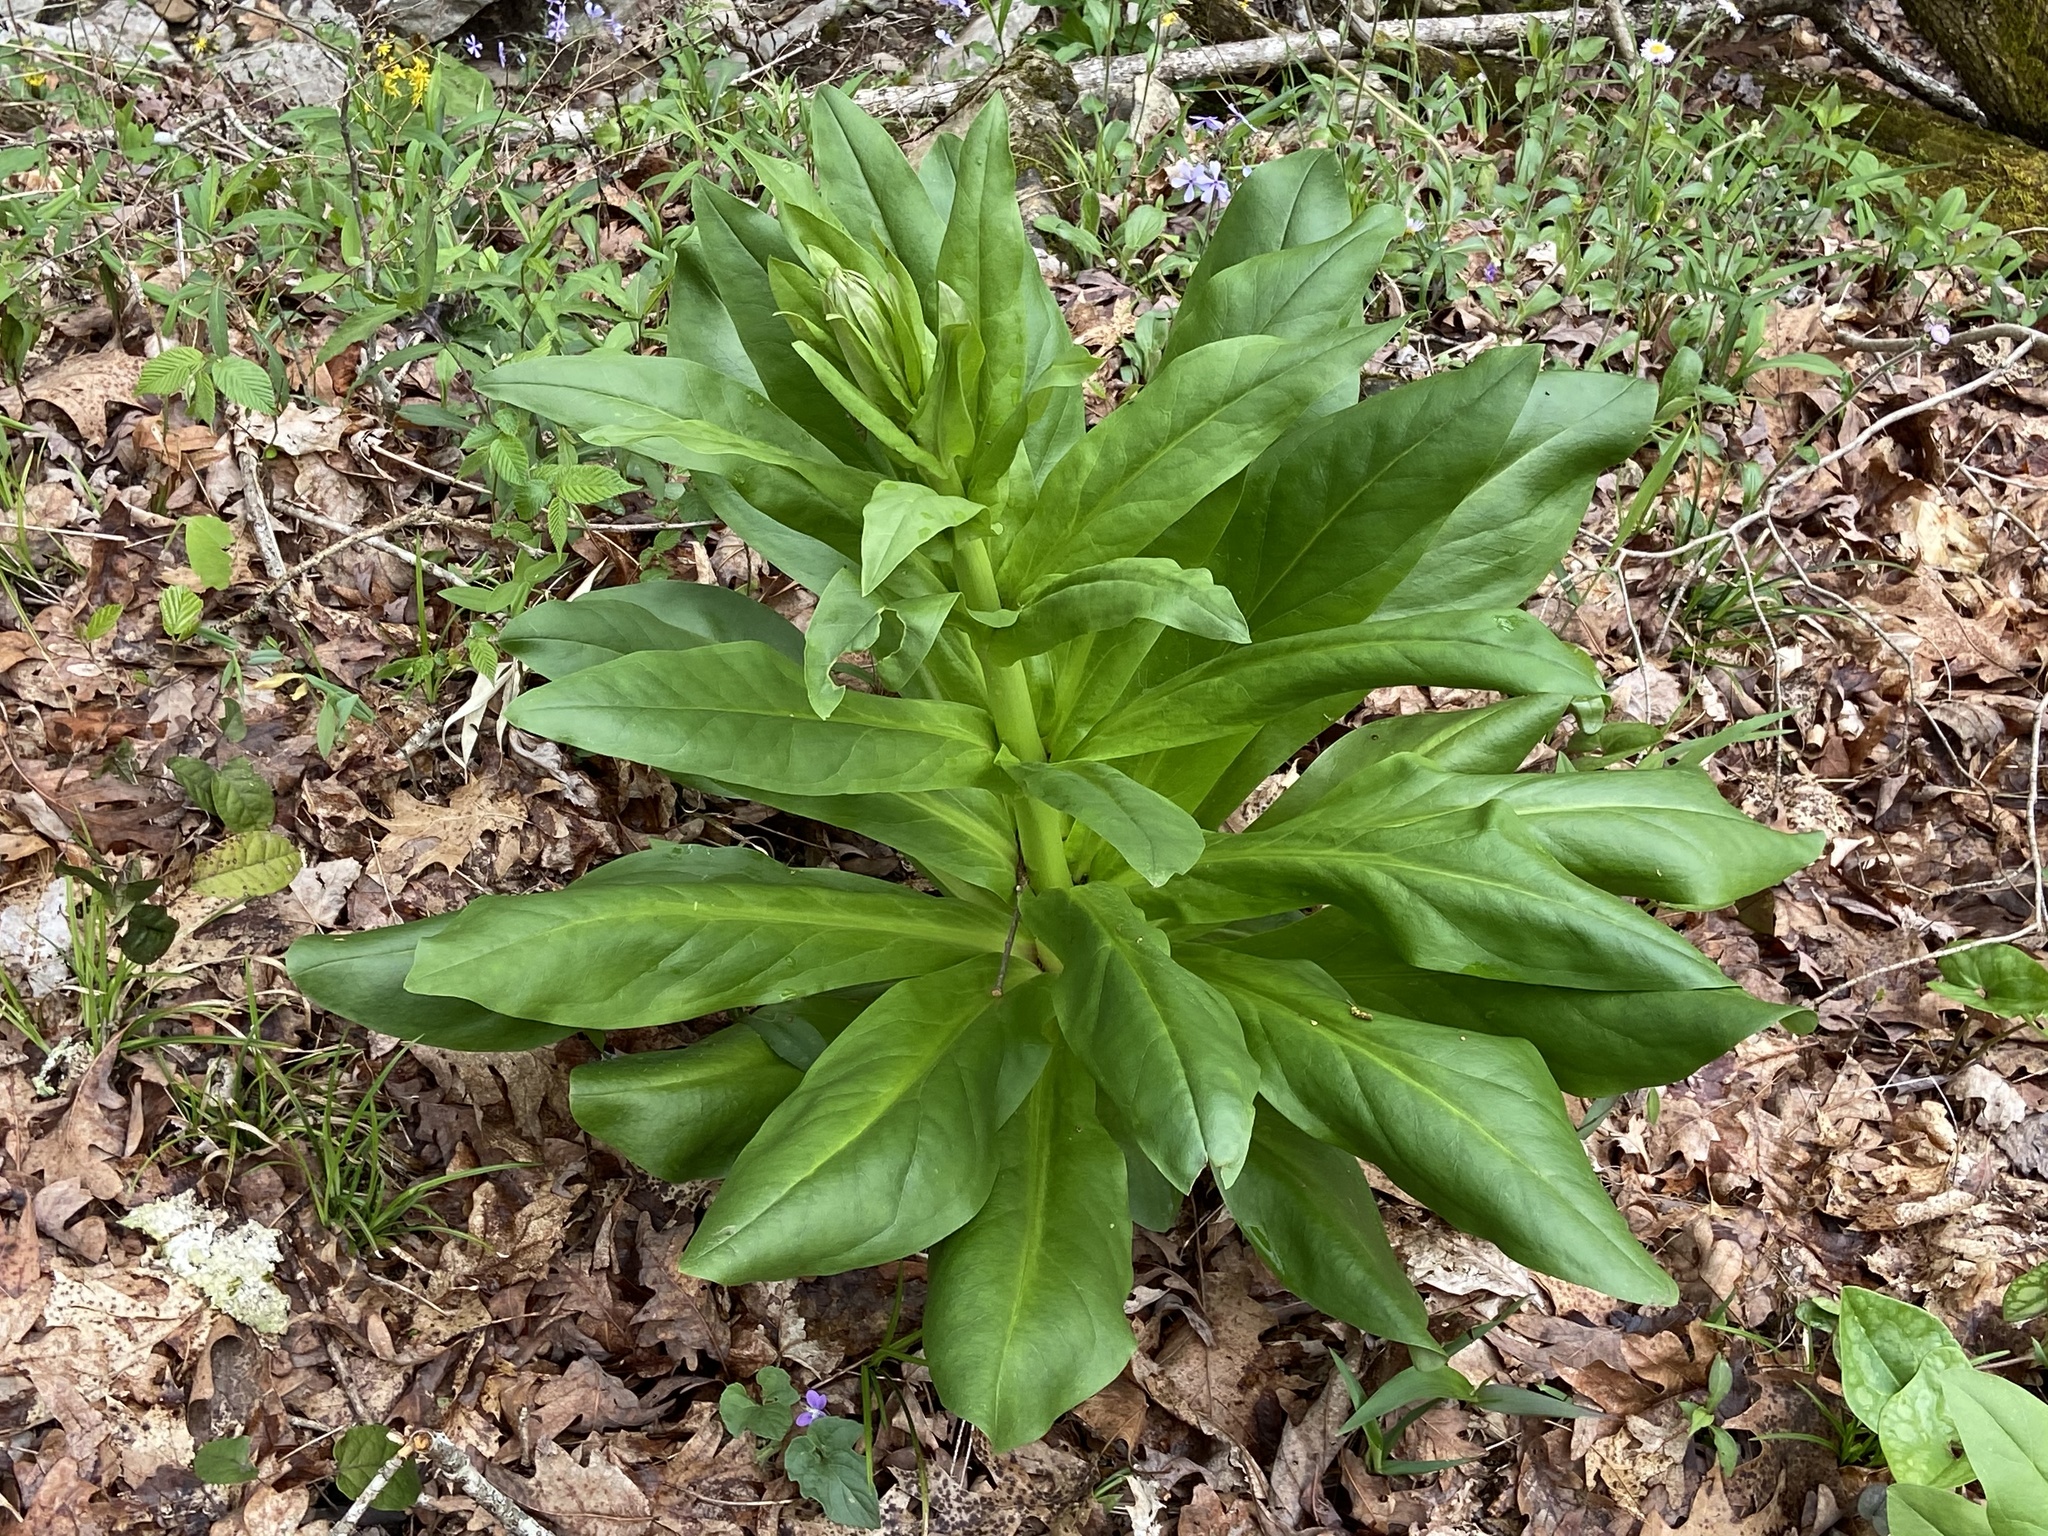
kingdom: Plantae
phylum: Tracheophyta
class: Magnoliopsida
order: Gentianales
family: Gentianaceae
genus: Frasera
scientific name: Frasera caroliniensis
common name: American columbo
